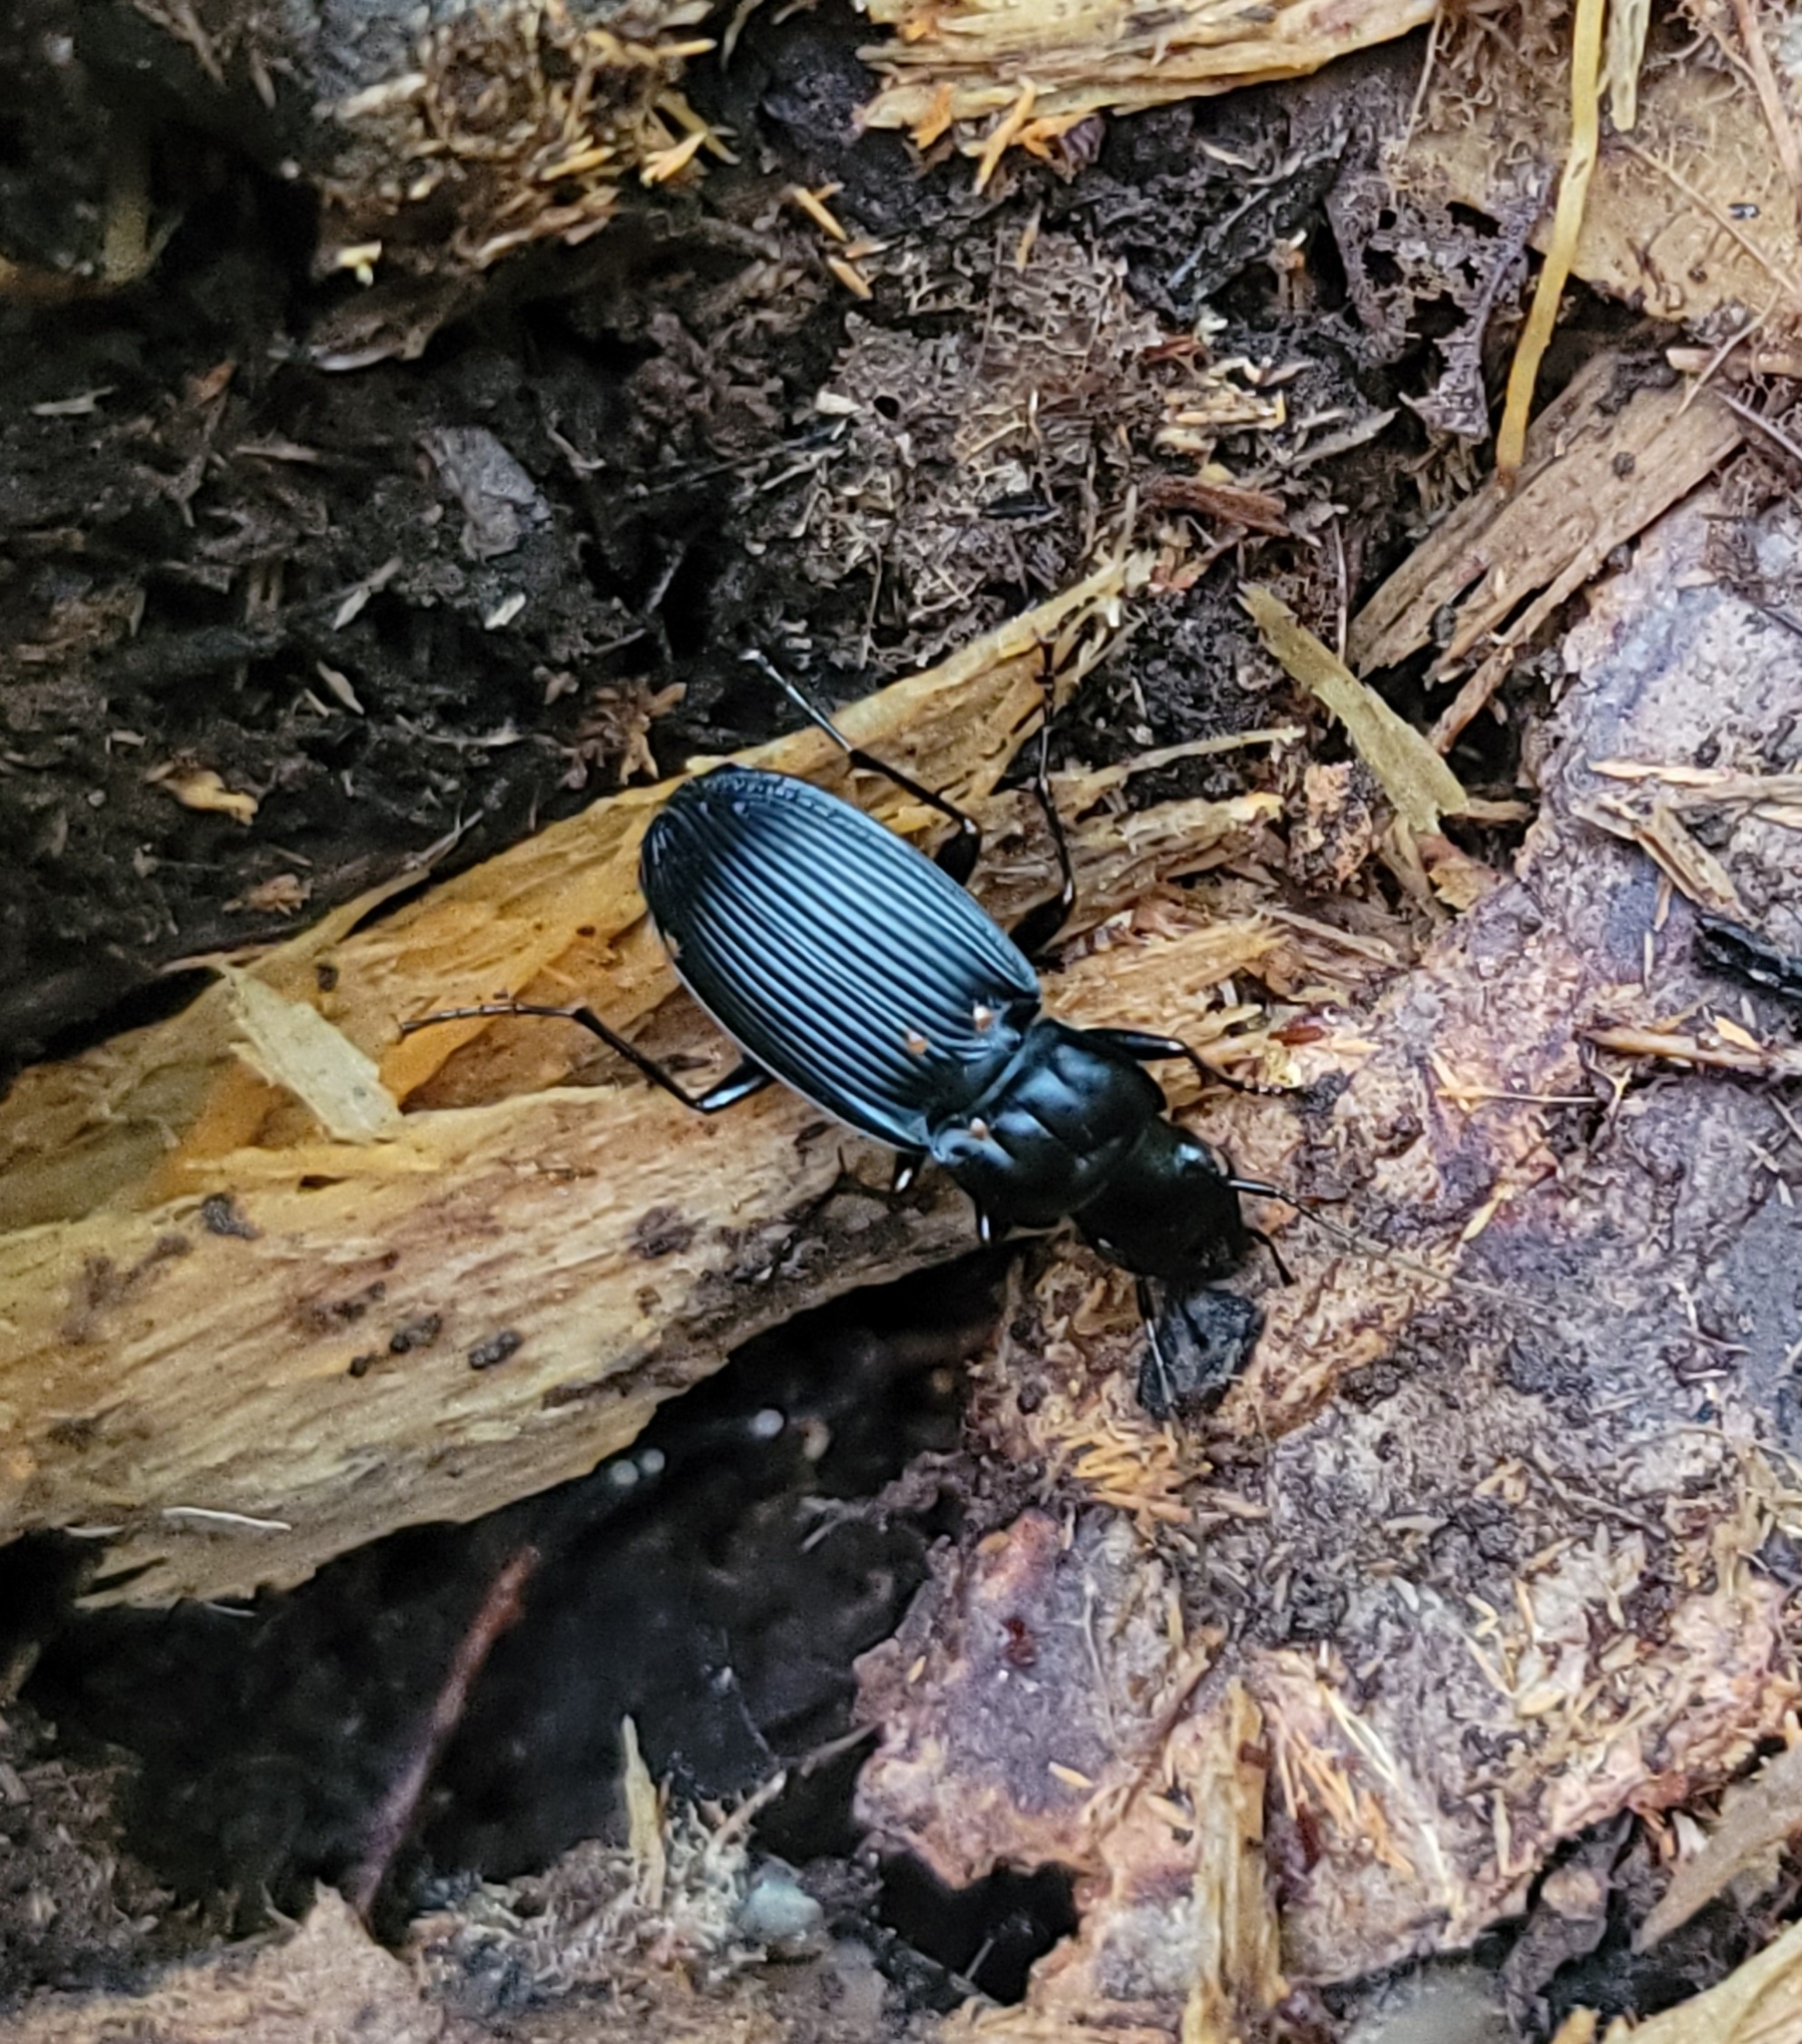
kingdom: Animalia
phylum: Arthropoda
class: Insecta
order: Coleoptera
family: Carabidae
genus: Dicaelus
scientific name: Dicaelus teter
